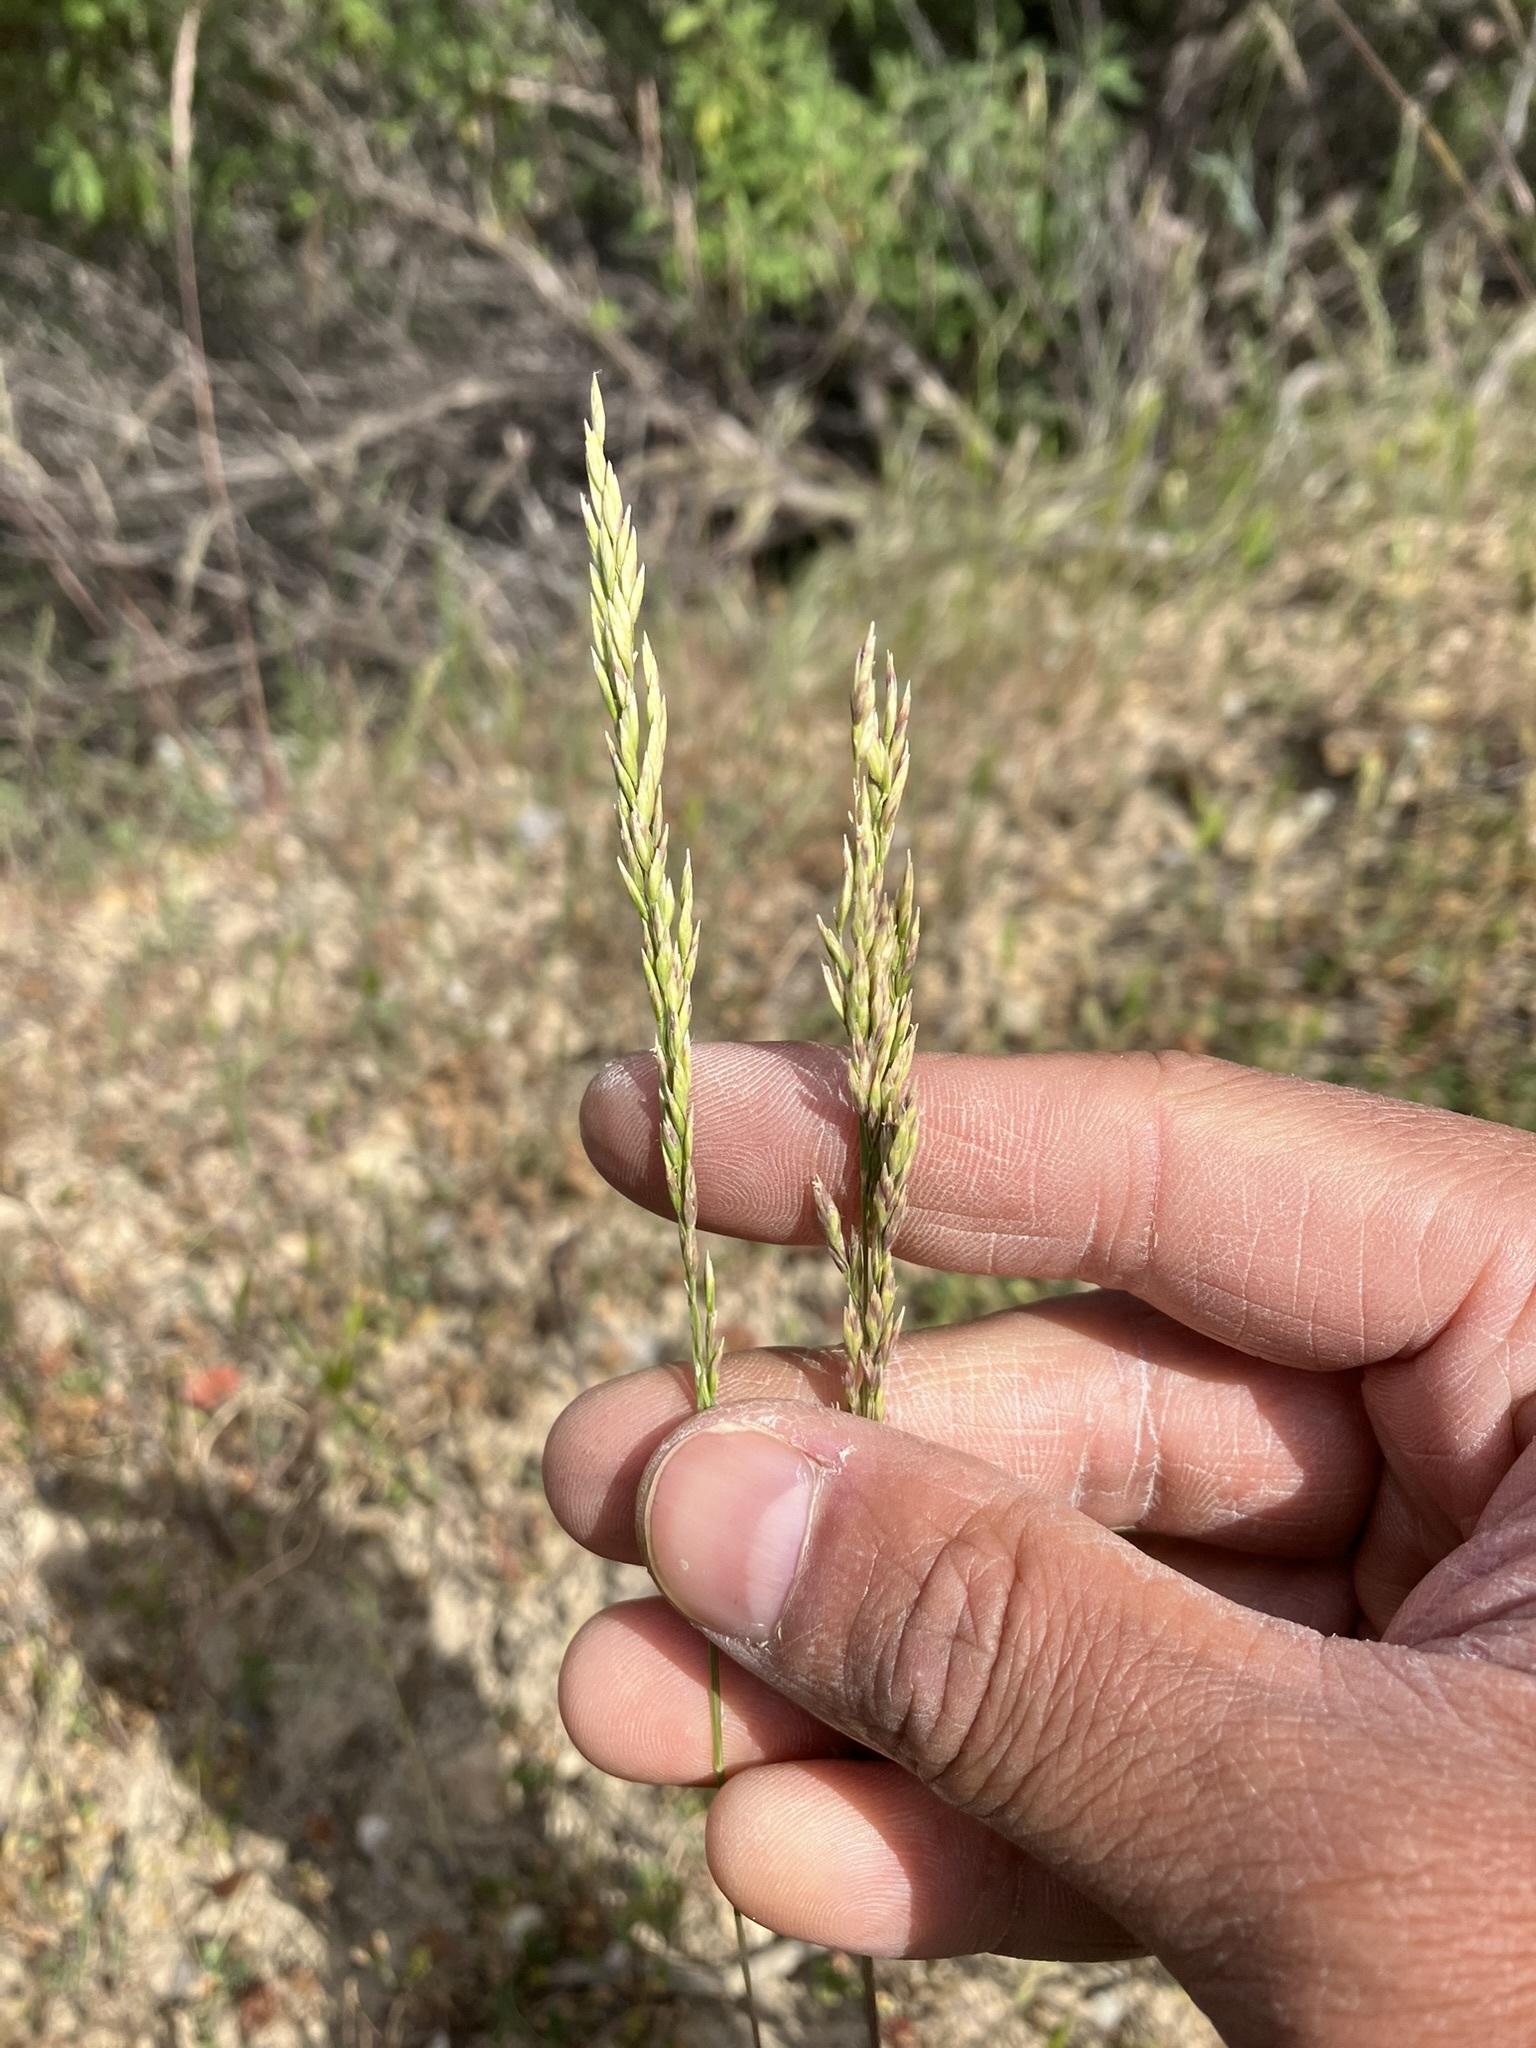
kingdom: Plantae
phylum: Tracheophyta
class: Liliopsida
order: Poales
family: Poaceae
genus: Poa
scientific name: Poa secunda
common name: Sandberg bluegrass
